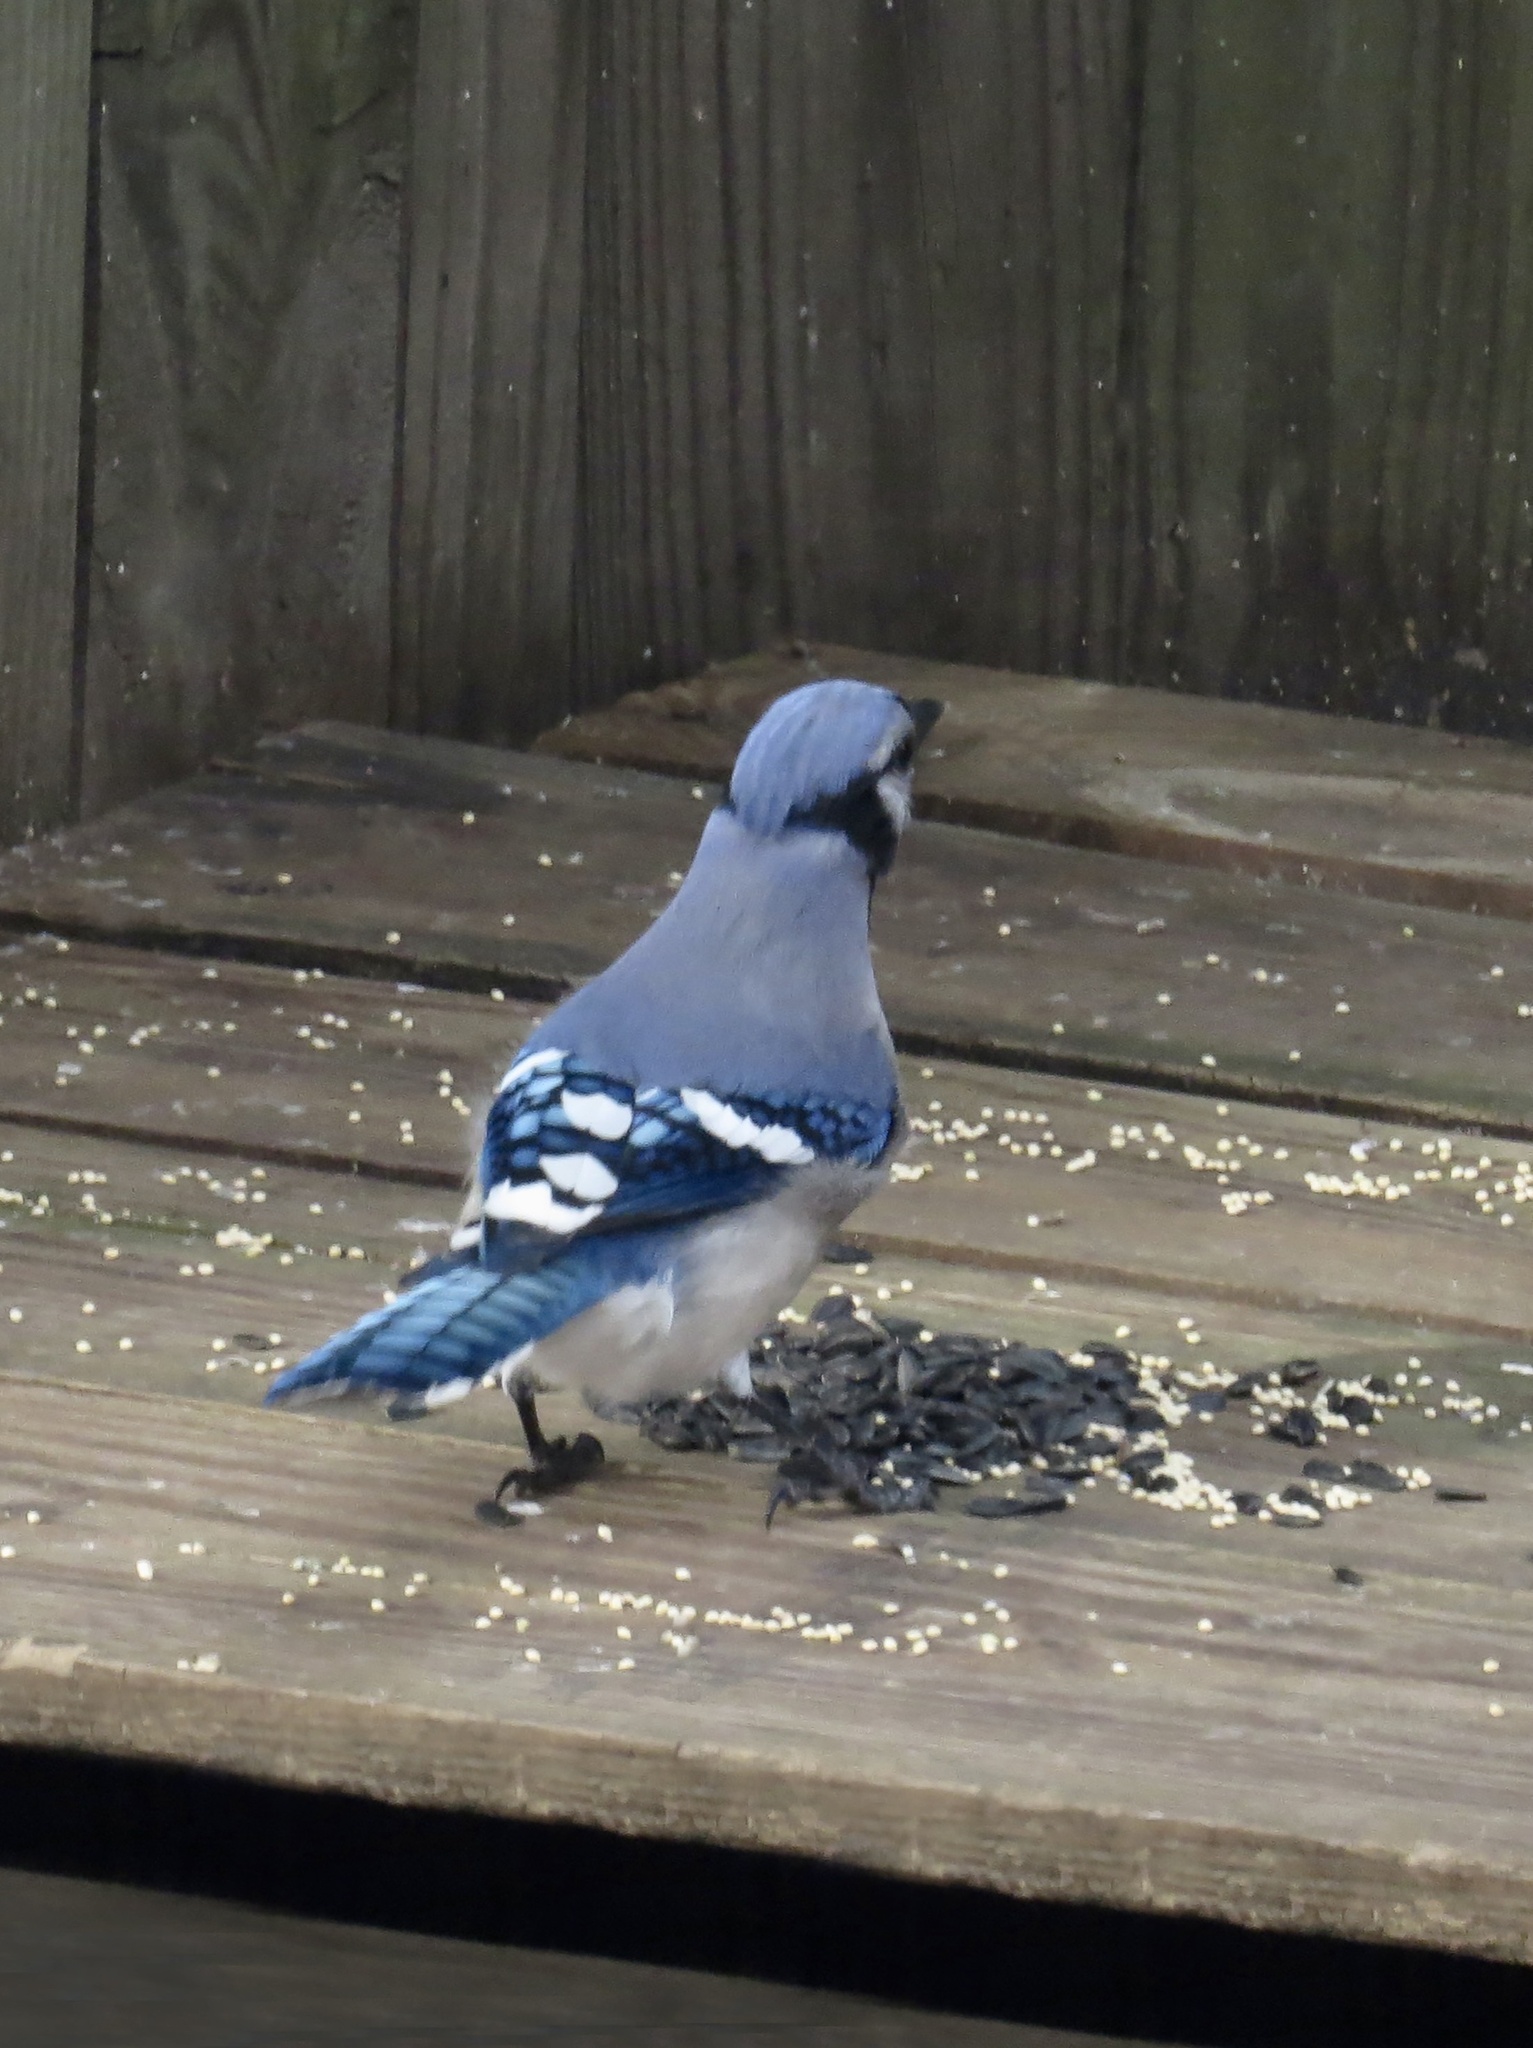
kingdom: Animalia
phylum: Chordata
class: Aves
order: Passeriformes
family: Corvidae
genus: Cyanocitta
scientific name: Cyanocitta cristata
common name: Blue jay
